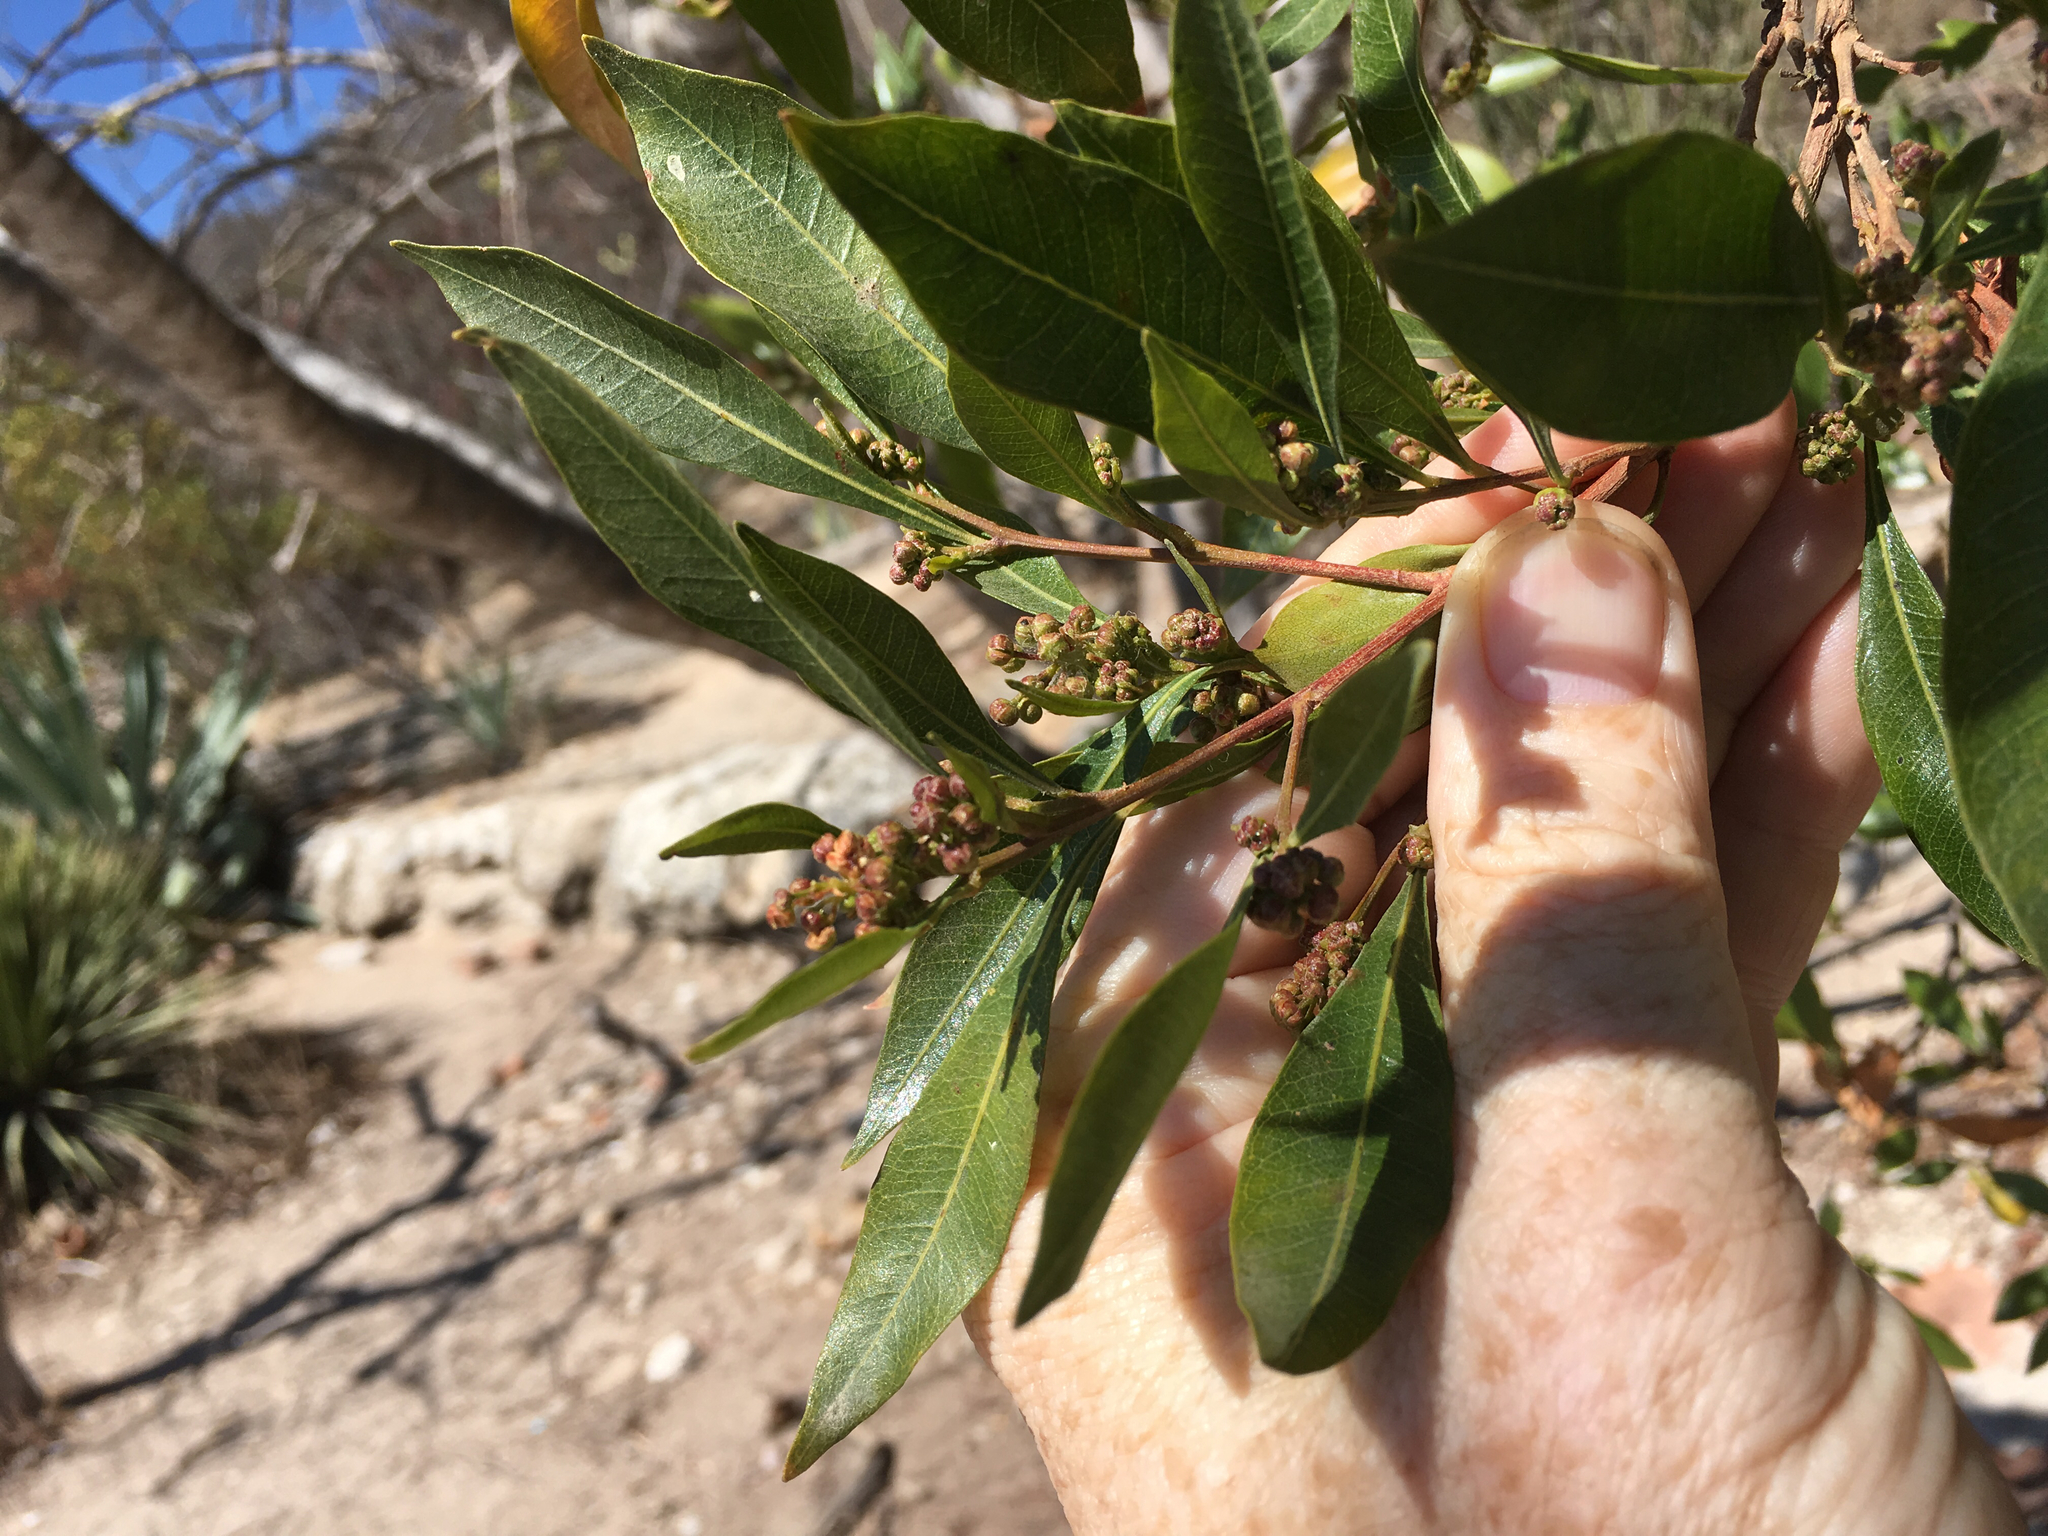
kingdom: Plantae
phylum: Tracheophyta
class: Magnoliopsida
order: Sapindales
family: Sapindaceae
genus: Dodonaea
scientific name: Dodonaea viscosa
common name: Hopbush
